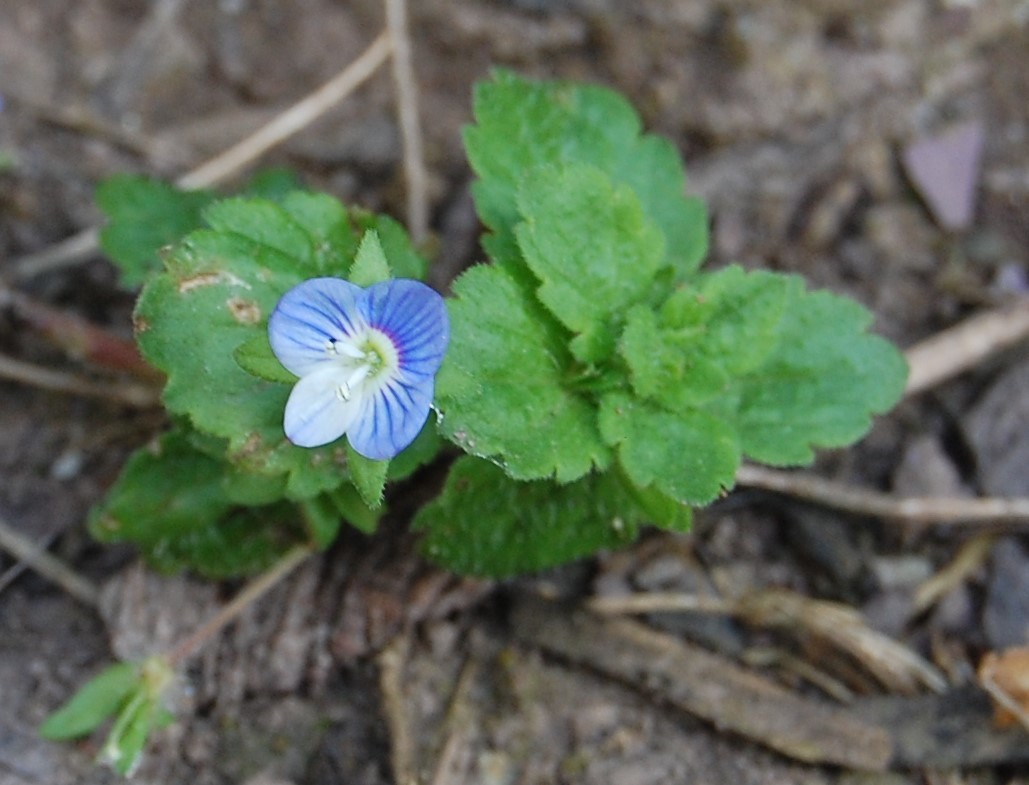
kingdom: Plantae
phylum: Tracheophyta
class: Magnoliopsida
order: Lamiales
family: Plantaginaceae
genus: Veronica
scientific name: Veronica persica
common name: Common field-speedwell
